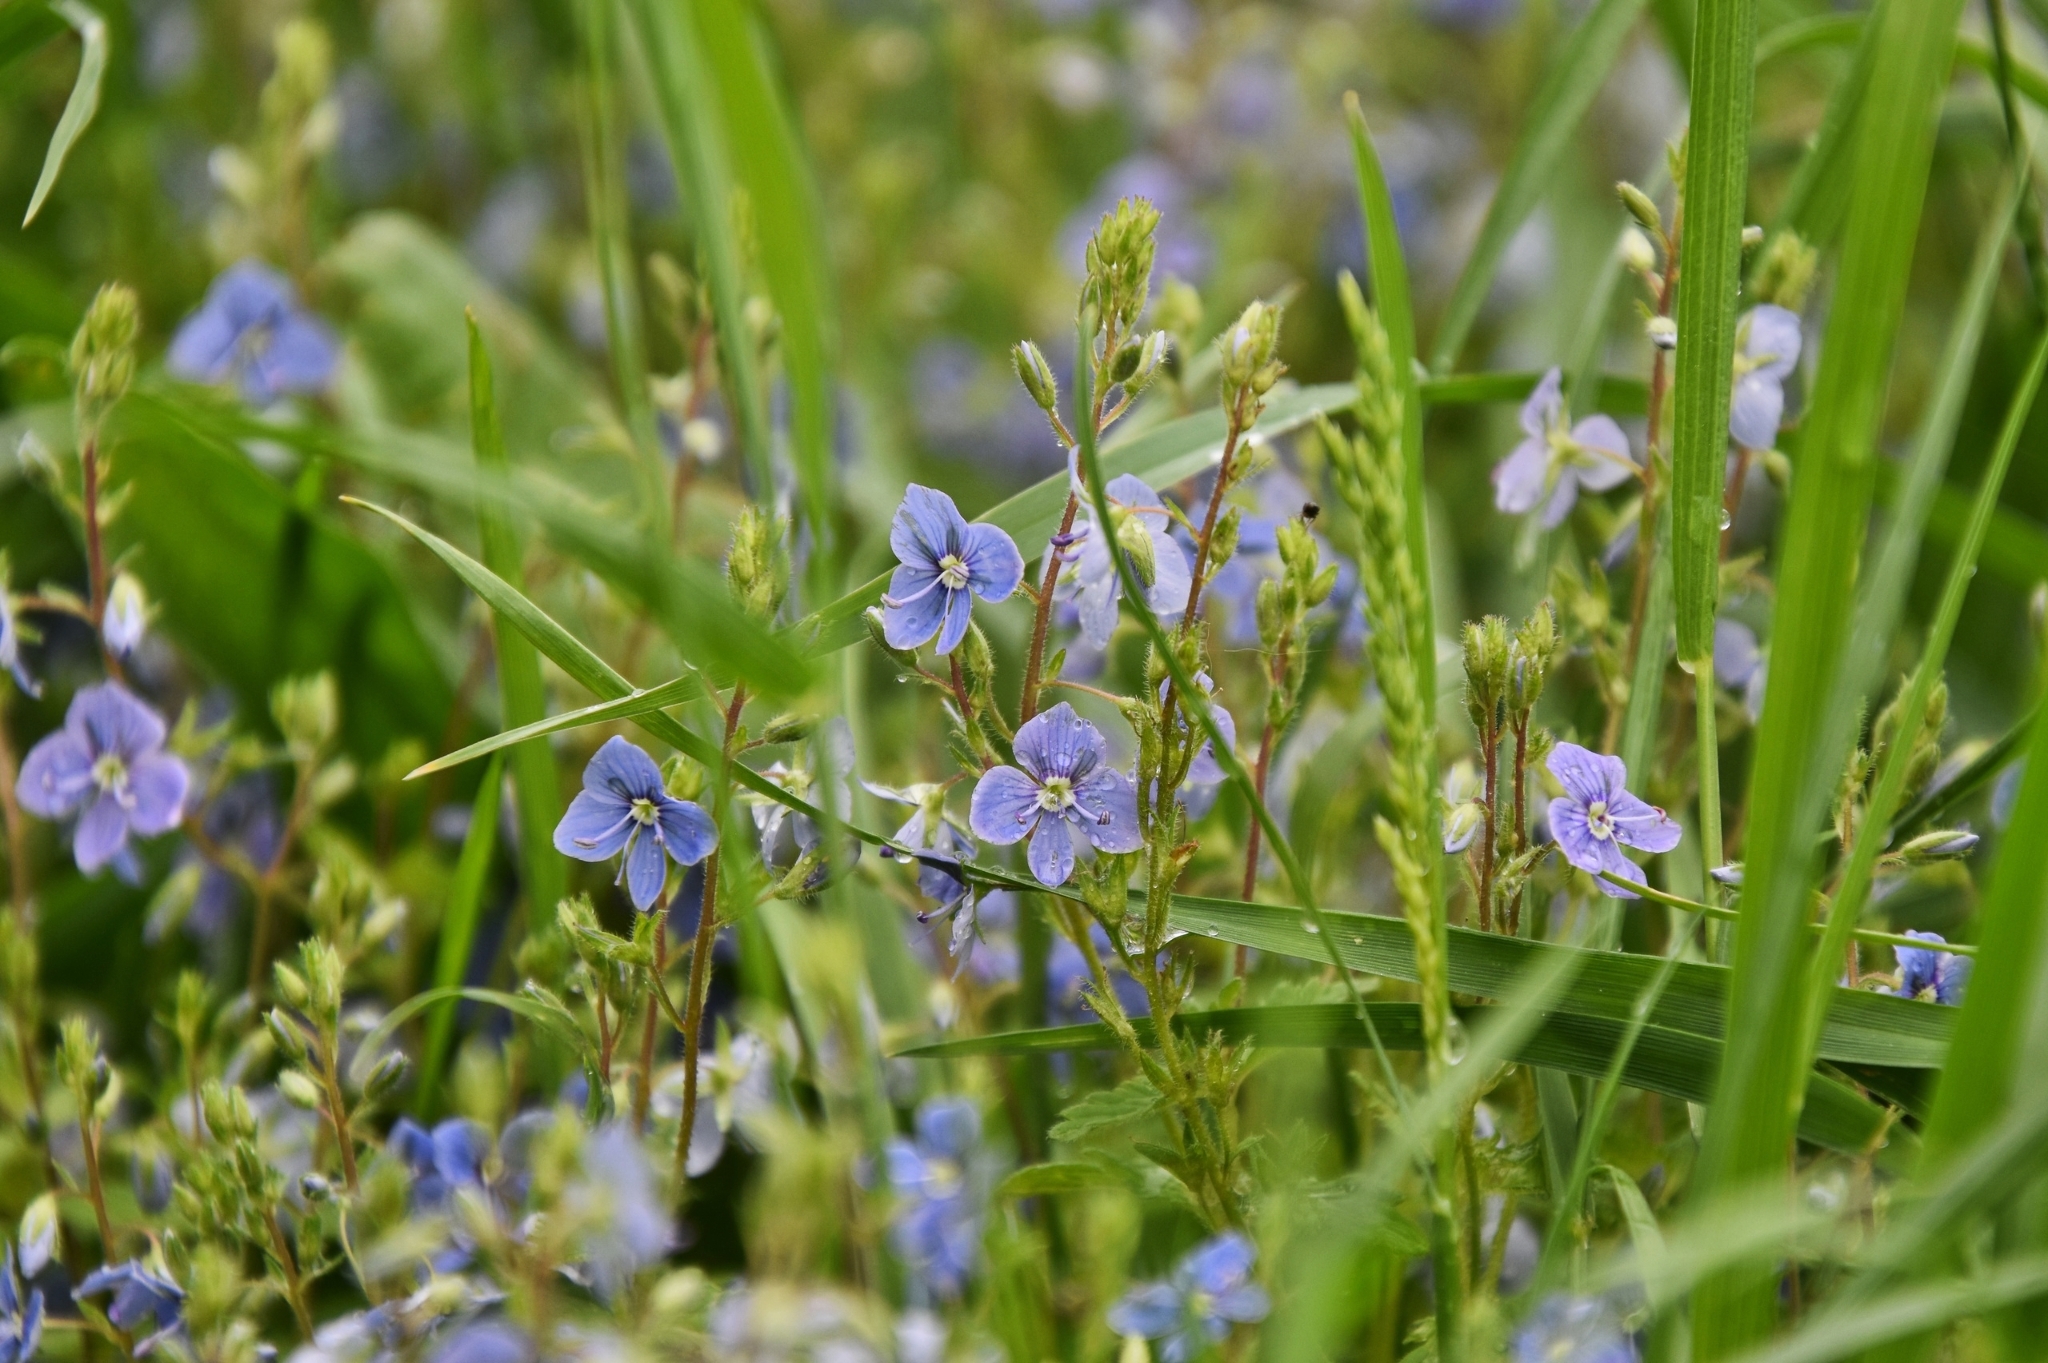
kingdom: Plantae
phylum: Tracheophyta
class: Magnoliopsida
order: Lamiales
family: Plantaginaceae
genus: Veronica
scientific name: Veronica chamaedrys
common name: Germander speedwell
